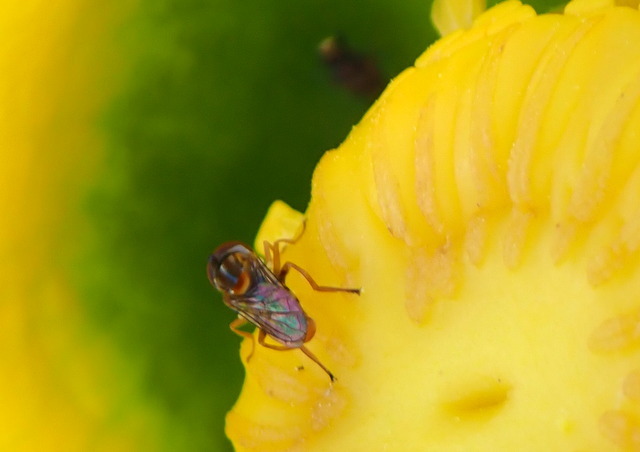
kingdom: Animalia
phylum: Arthropoda
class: Insecta
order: Diptera
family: Syrphidae
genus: Toxomerus
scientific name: Toxomerus jussiaeae
